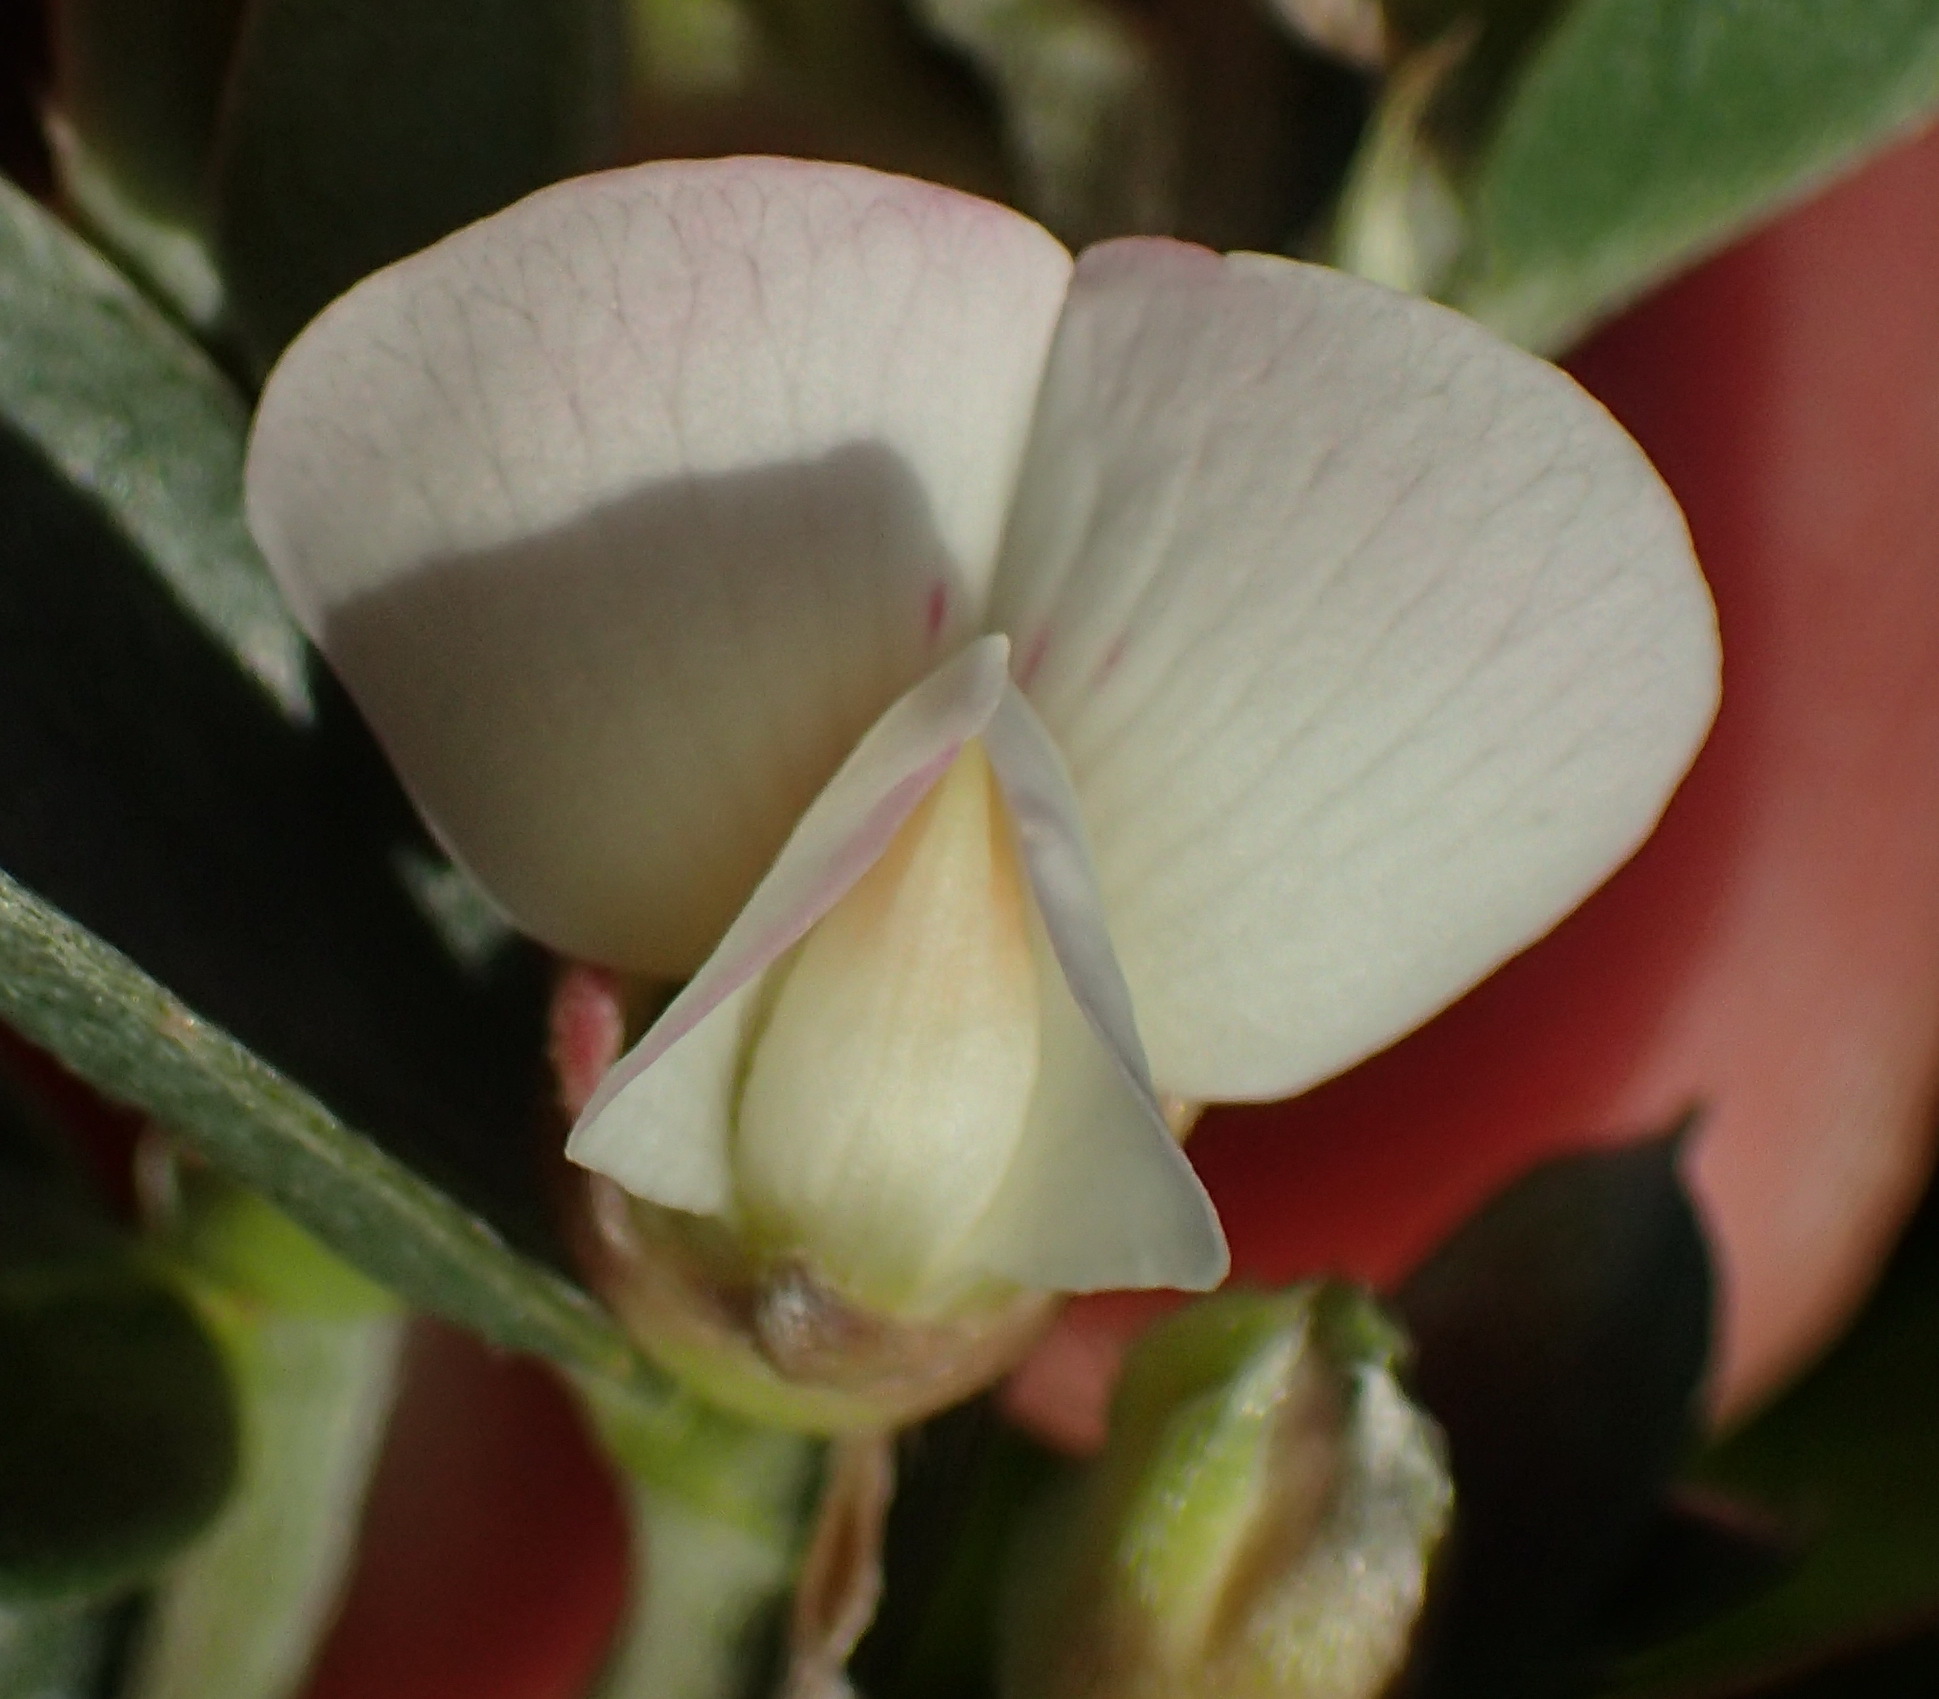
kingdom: Plantae
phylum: Tracheophyta
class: Magnoliopsida
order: Fabales
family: Fabaceae
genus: Podalyria
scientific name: Podalyria myrtillifolia
